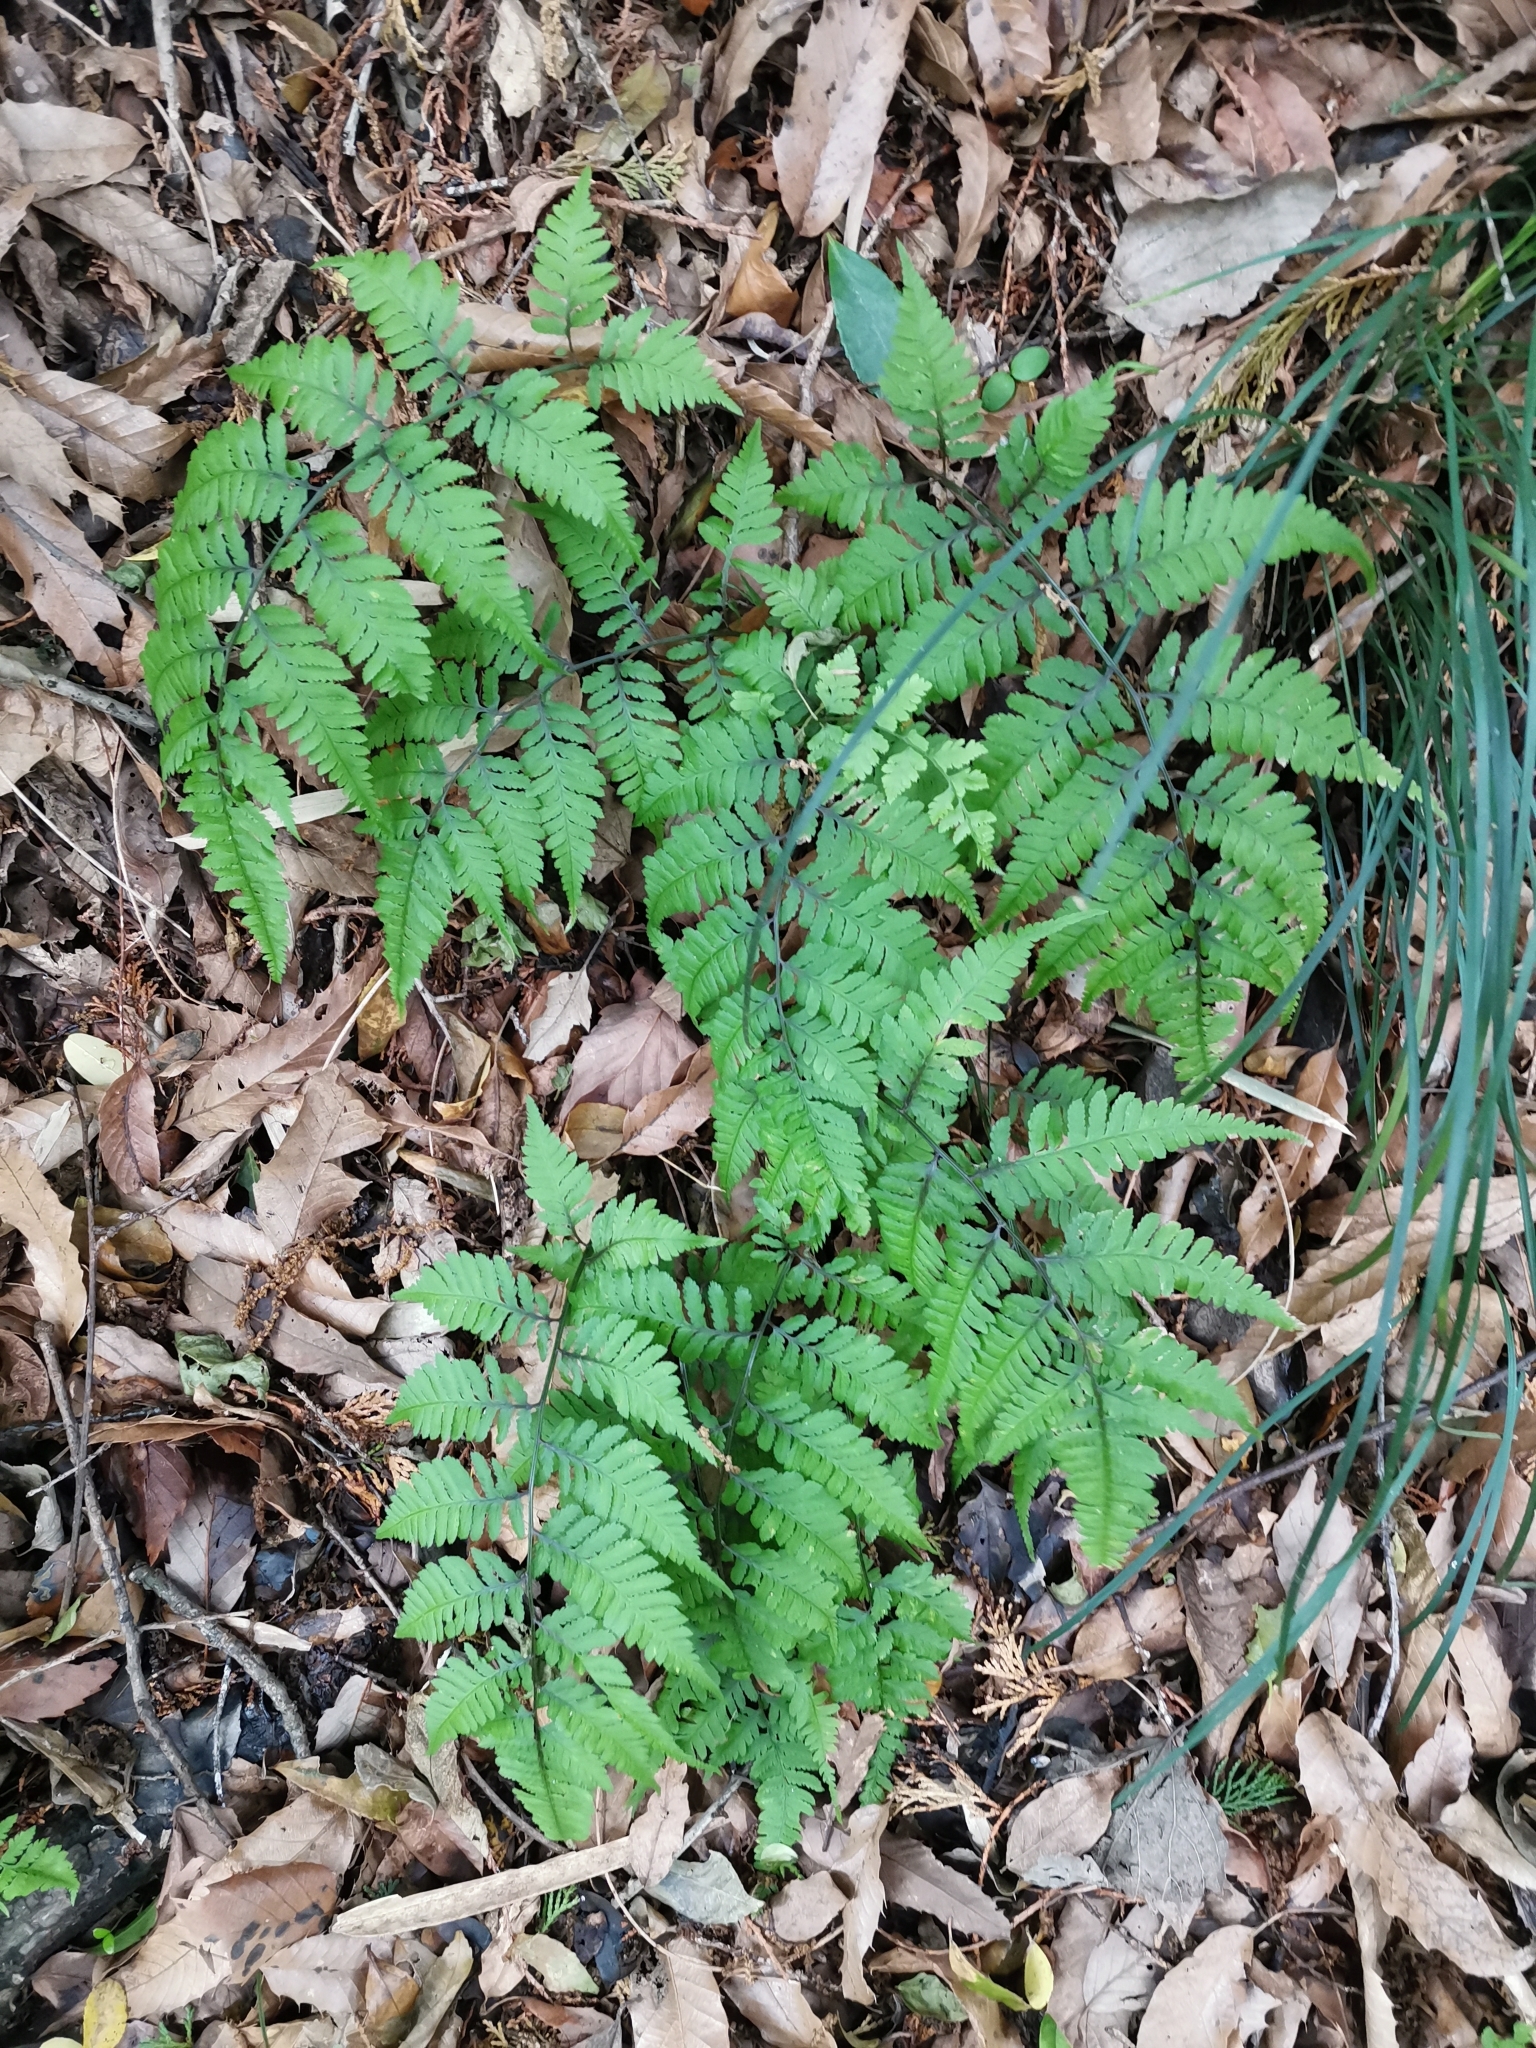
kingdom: Plantae
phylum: Tracheophyta
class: Polypodiopsida
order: Polypodiales
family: Athyriaceae
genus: Anisocampium
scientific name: Anisocampium niponicum
